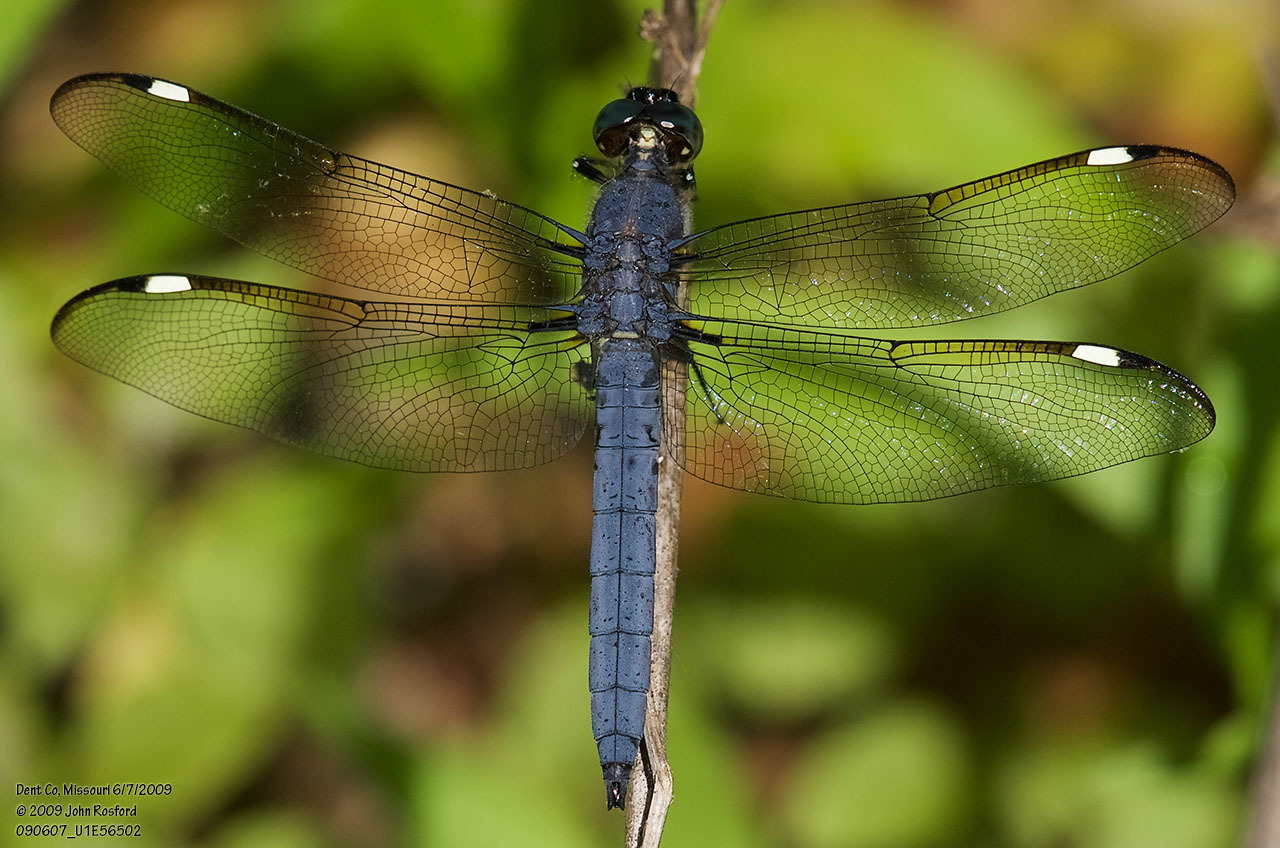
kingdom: Animalia
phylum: Arthropoda
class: Insecta
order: Odonata
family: Libellulidae
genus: Libellula
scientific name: Libellula cyanea
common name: Spangled skimmer
